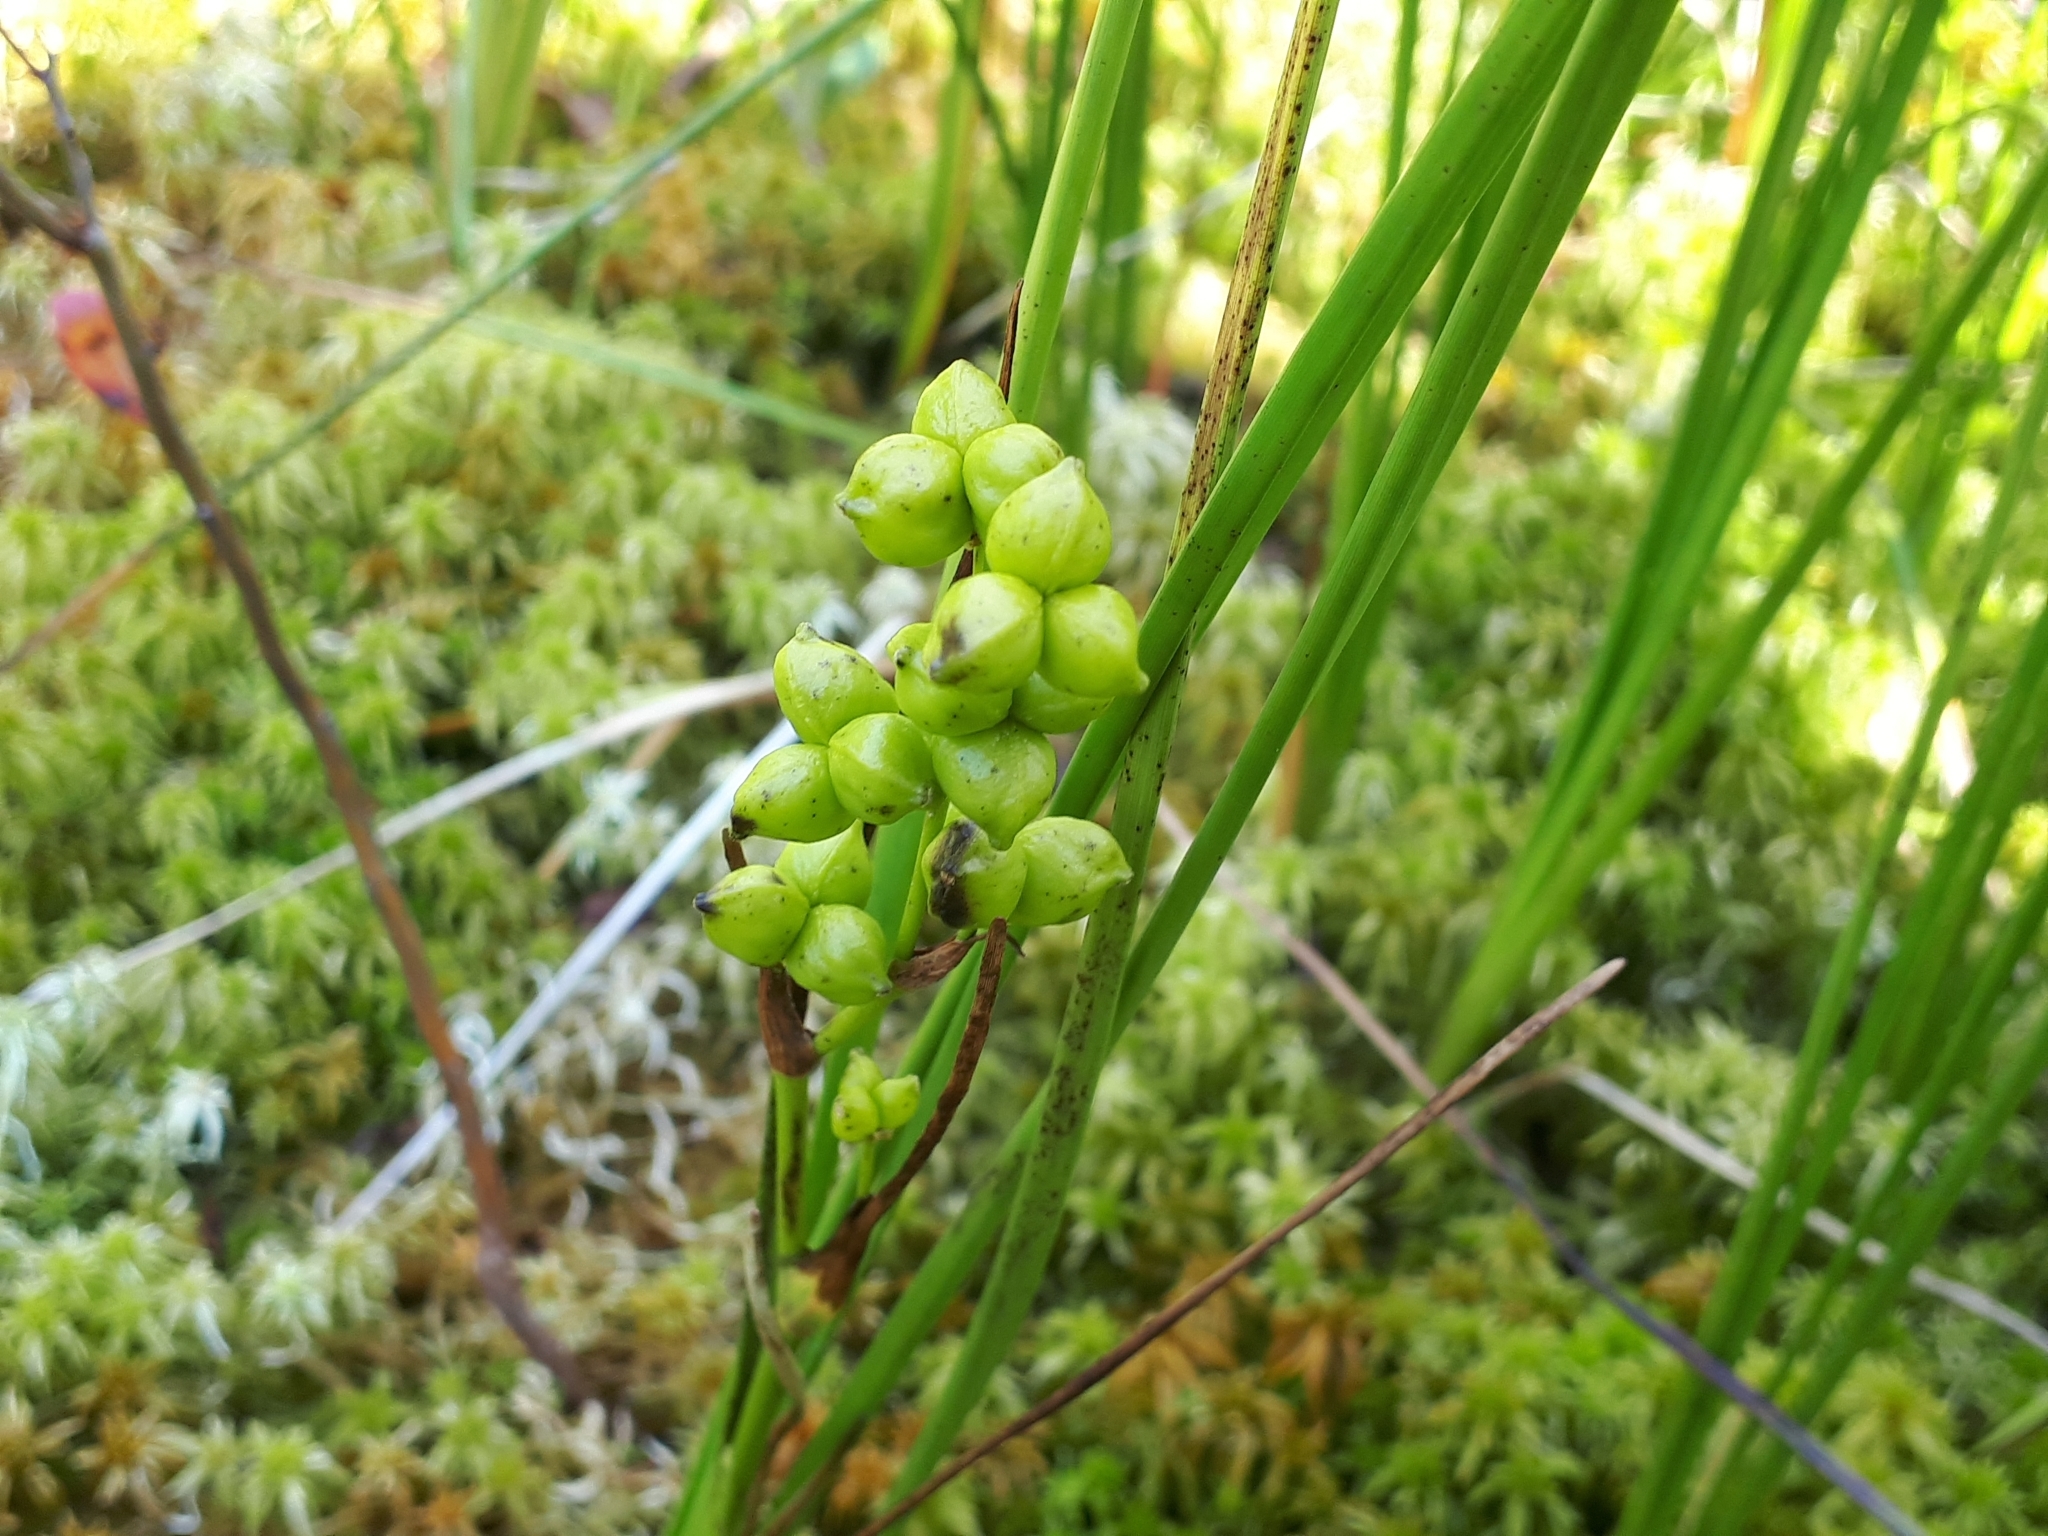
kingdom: Plantae
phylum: Tracheophyta
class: Liliopsida
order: Alismatales
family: Scheuchzeriaceae
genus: Scheuchzeria
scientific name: Scheuchzeria palustris
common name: Rannoch-rush
